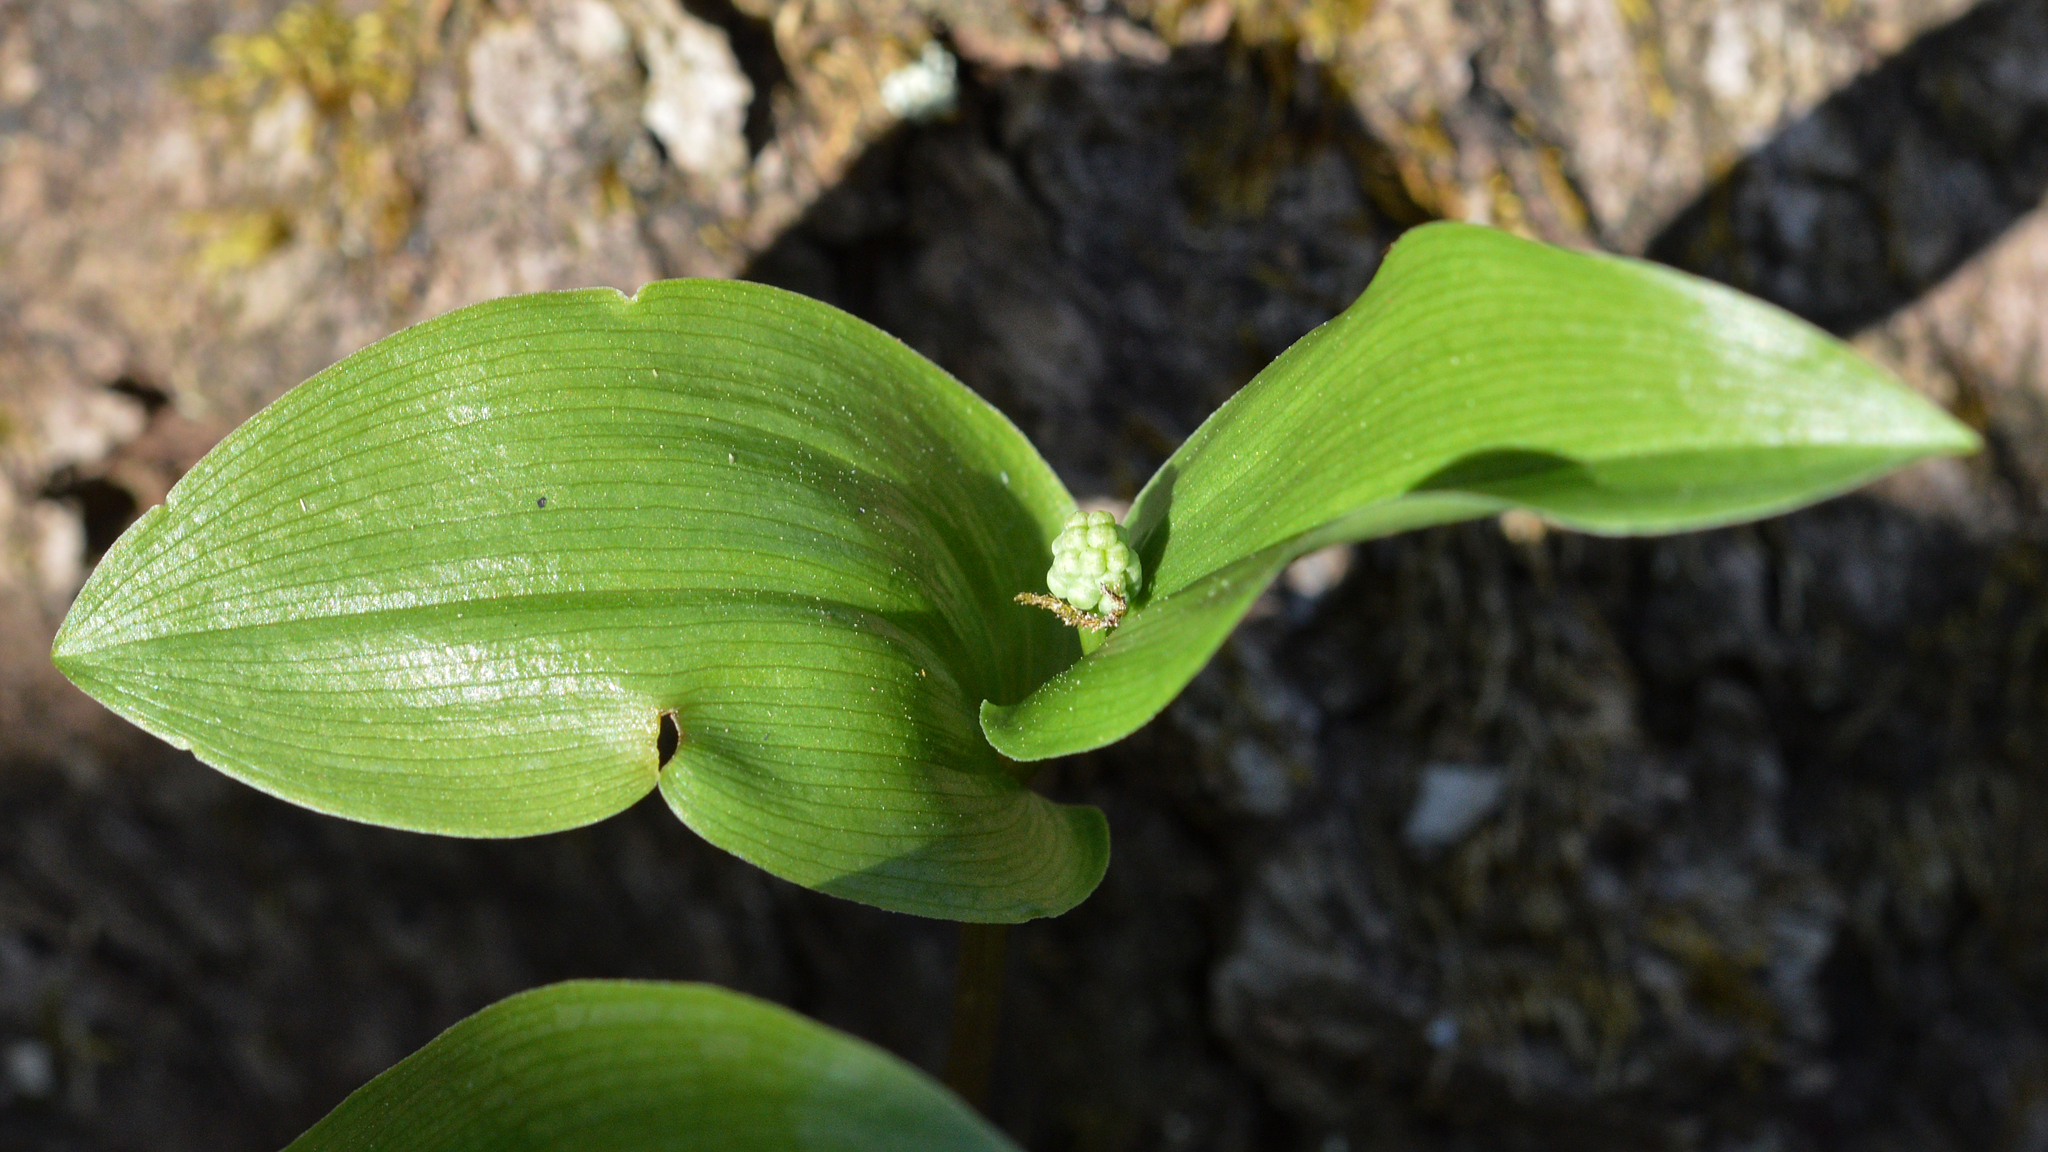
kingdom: Plantae
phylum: Tracheophyta
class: Liliopsida
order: Asparagales
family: Asparagaceae
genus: Maianthemum
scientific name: Maianthemum canadense
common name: False lily-of-the-valley
